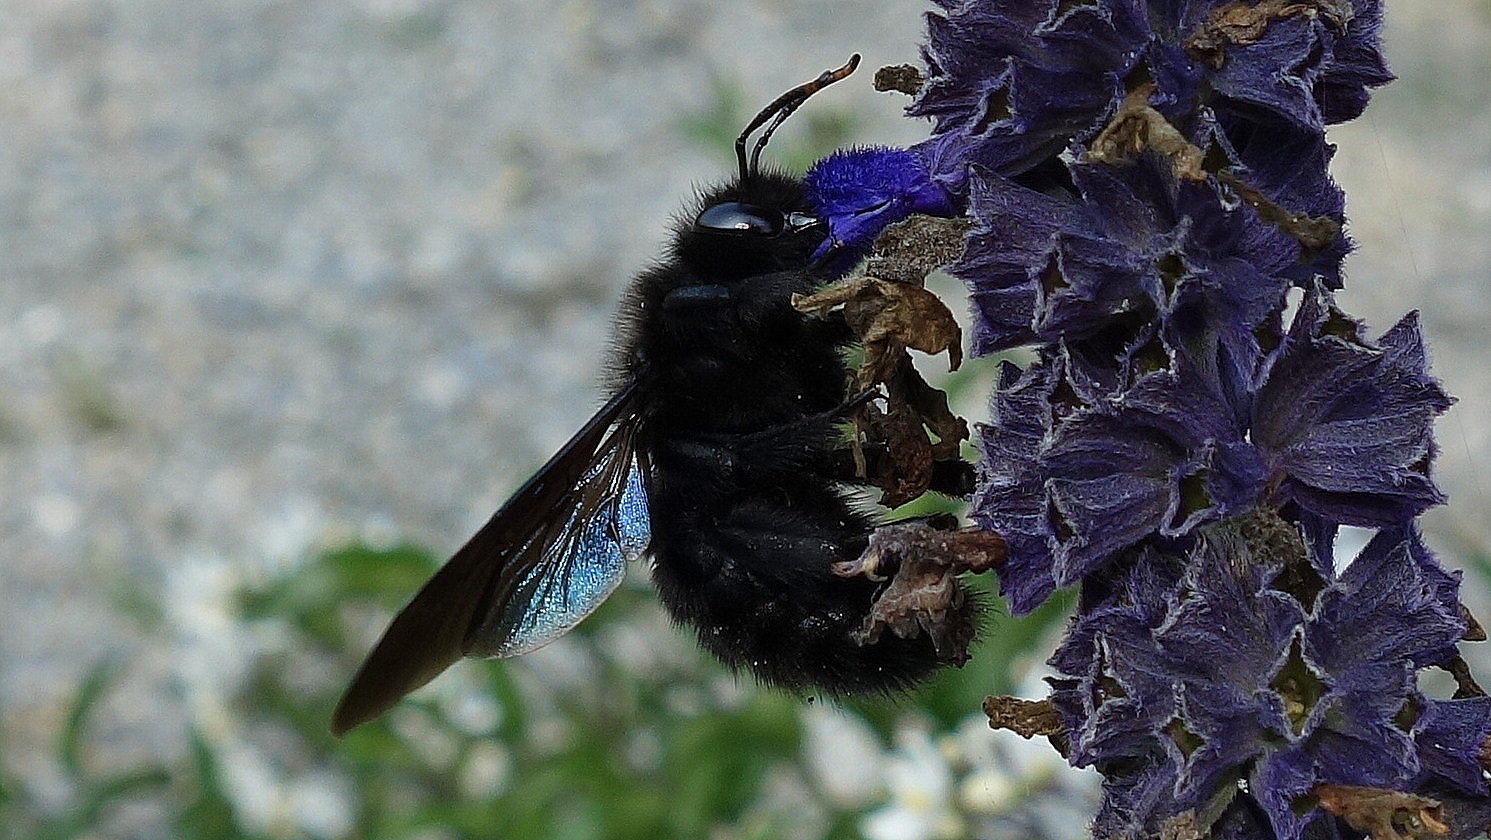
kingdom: Animalia
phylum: Arthropoda
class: Insecta
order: Hymenoptera
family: Apidae
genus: Xylocopa
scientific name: Xylocopa violacea
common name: Violet carpenter bee
